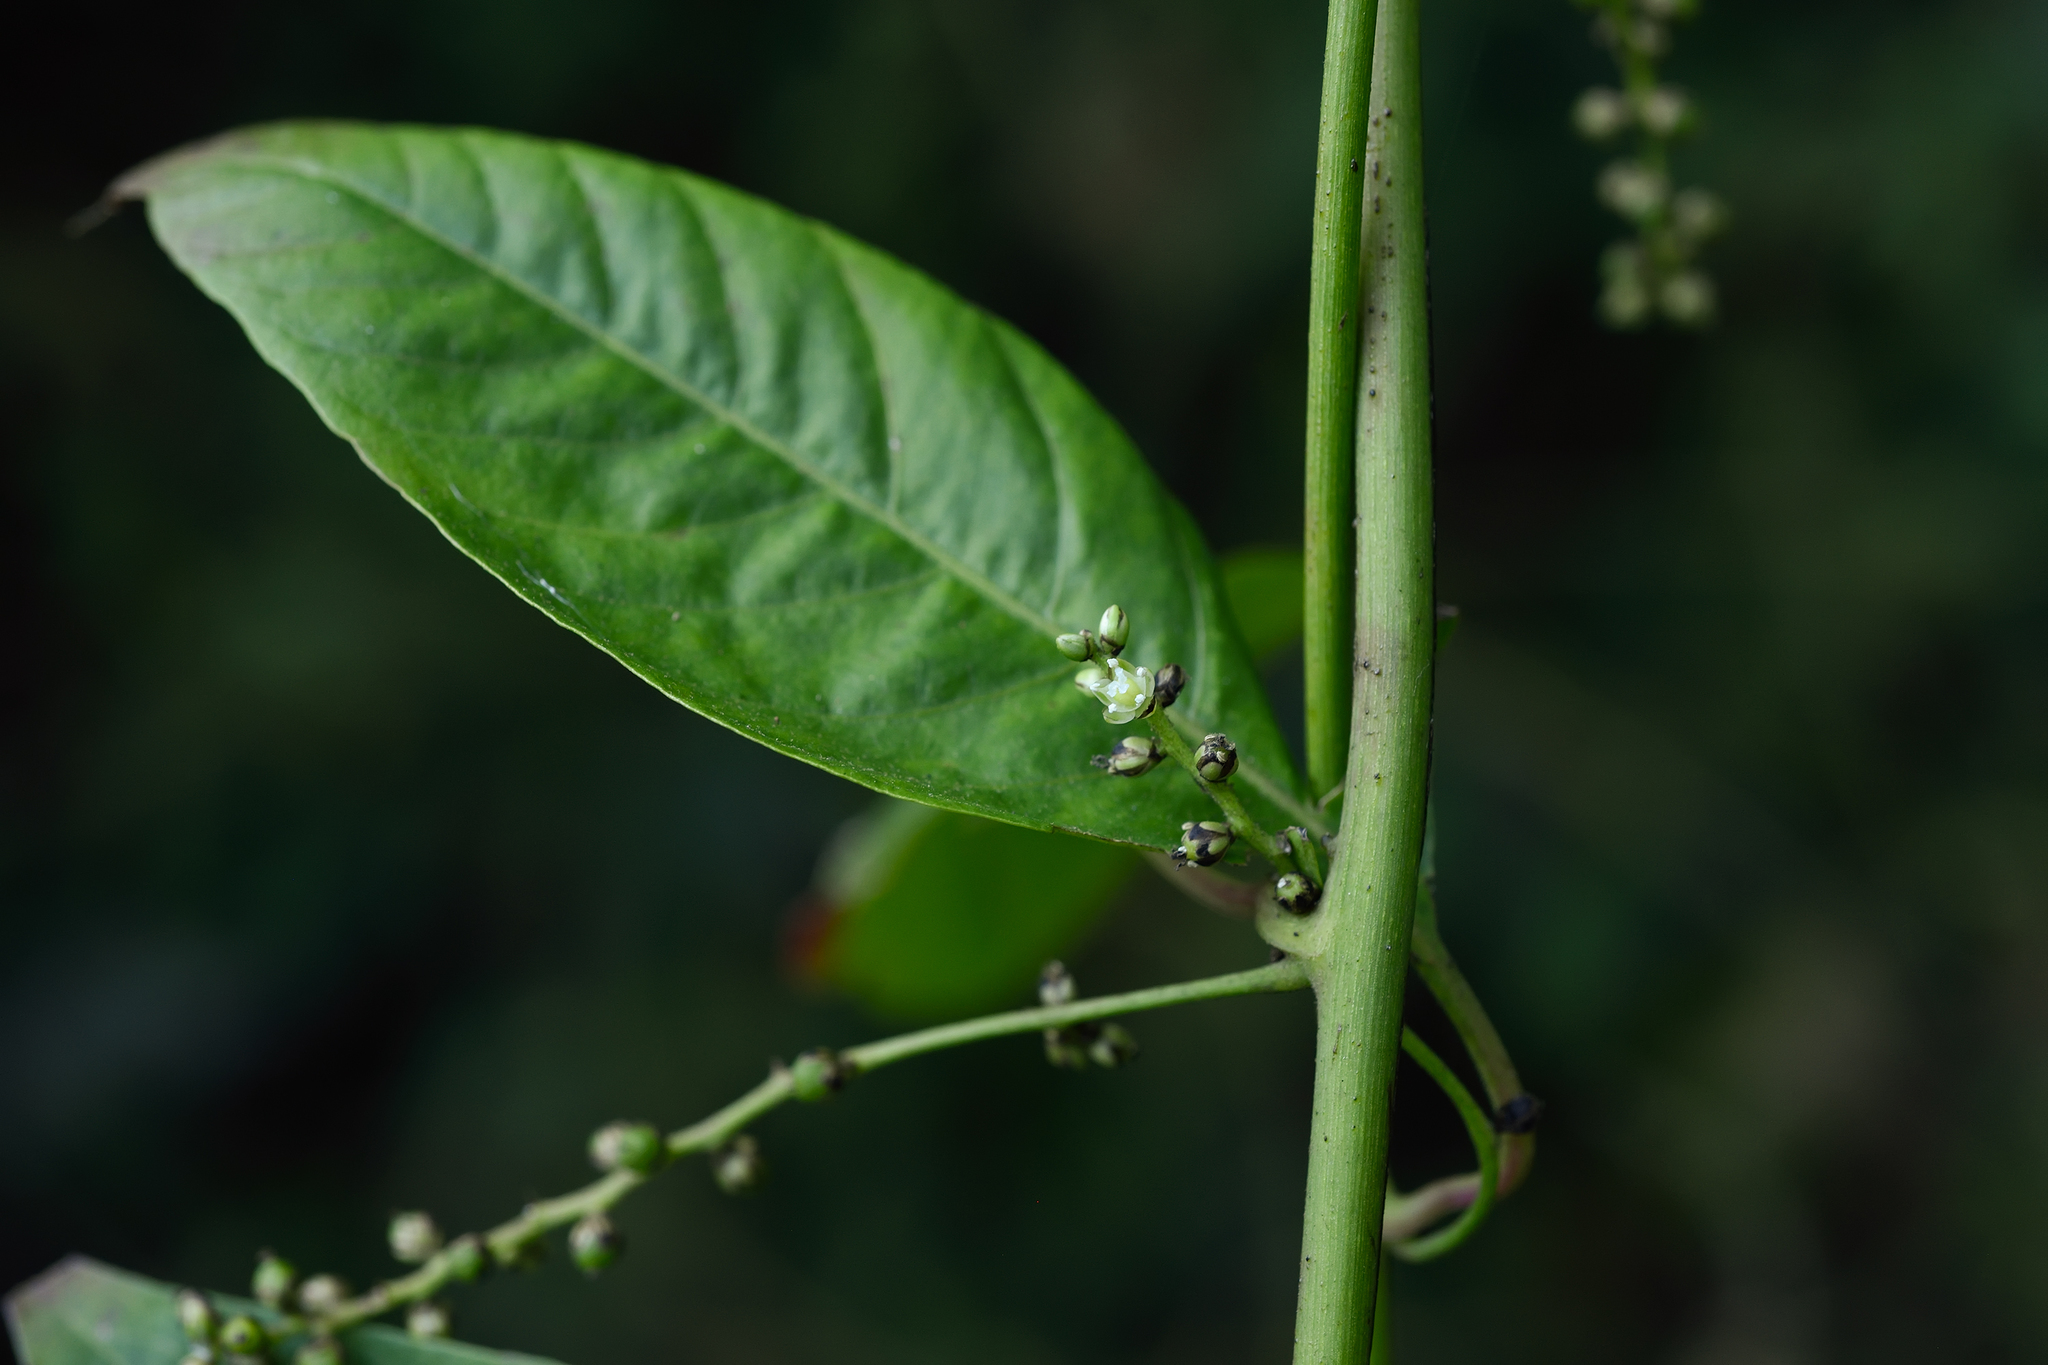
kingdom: Plantae
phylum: Tracheophyta
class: Magnoliopsida
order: Caryophyllales
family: Amaranthaceae
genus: Deeringia
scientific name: Deeringia polysperma
